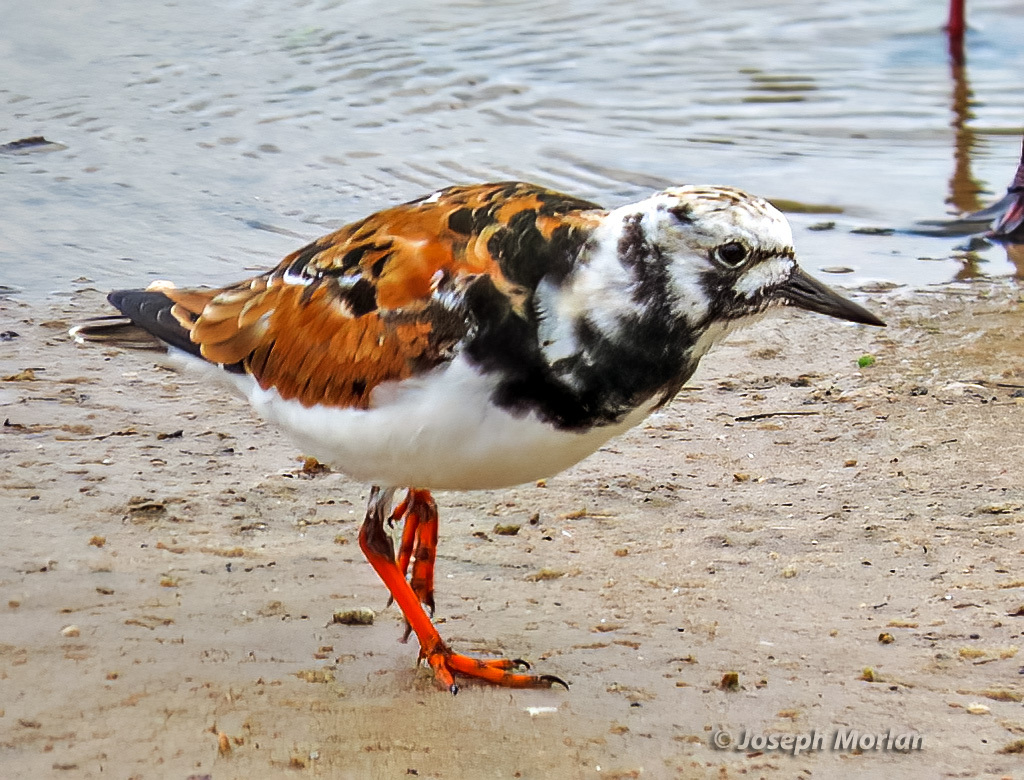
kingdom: Animalia
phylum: Chordata
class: Aves
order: Charadriiformes
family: Scolopacidae
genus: Arenaria
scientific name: Arenaria interpres
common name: Ruddy turnstone
